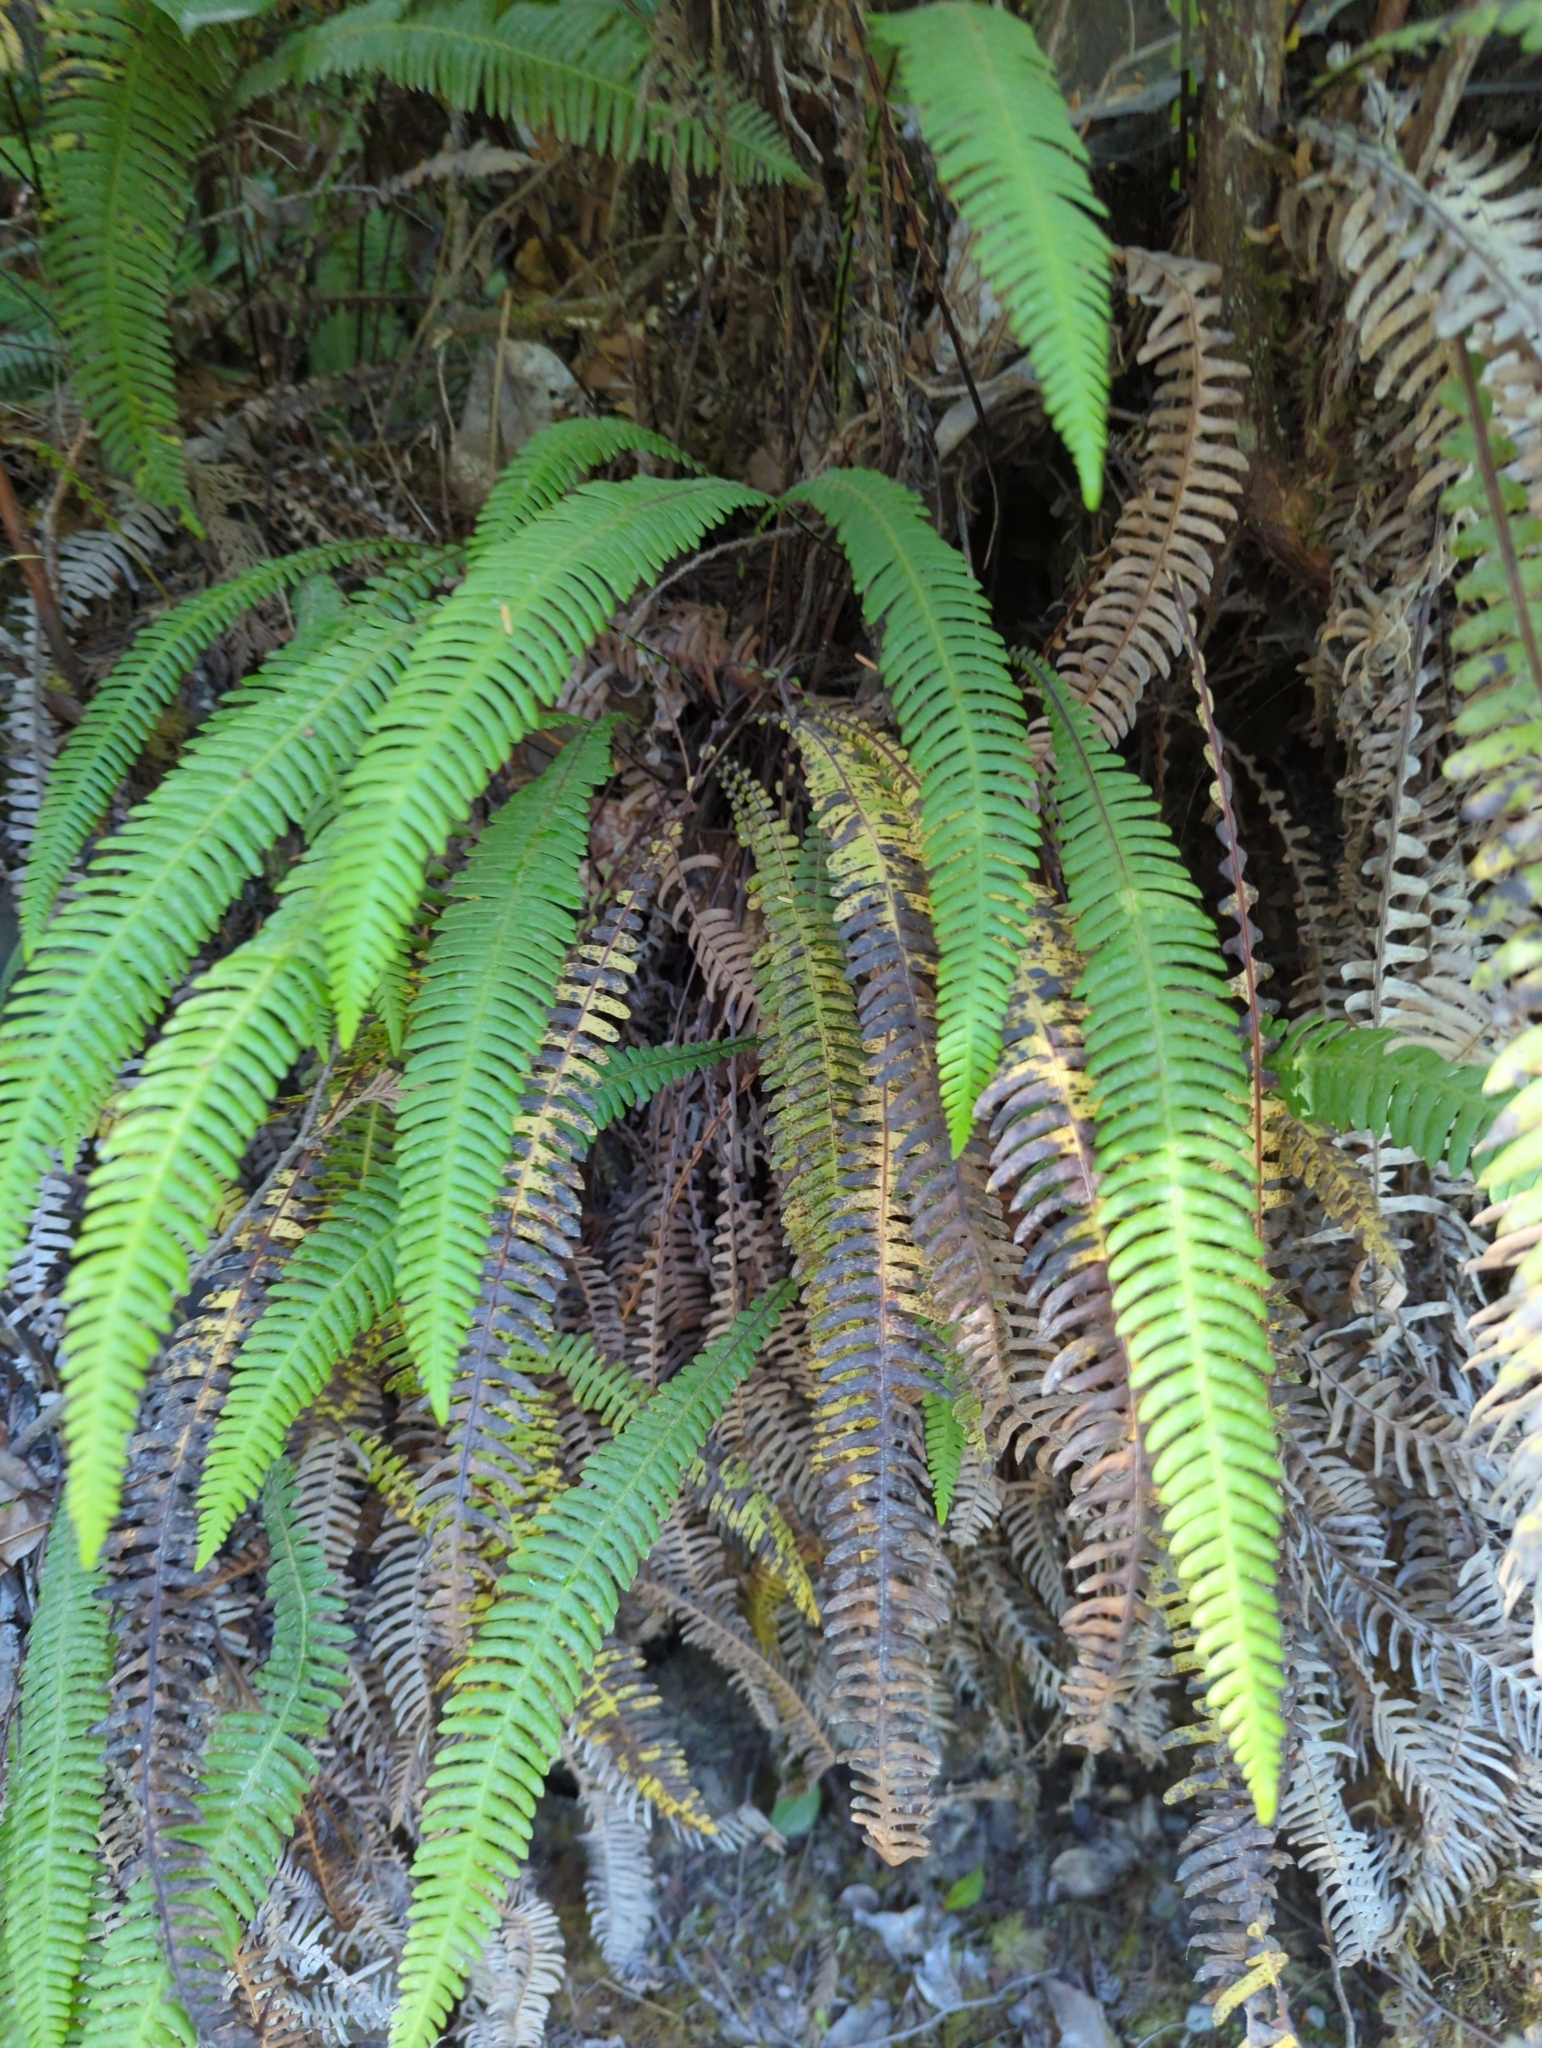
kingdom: Plantae
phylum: Tracheophyta
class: Polypodiopsida
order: Polypodiales
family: Blechnaceae
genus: Struthiopteris
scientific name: Struthiopteris spicant
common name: Deer fern
